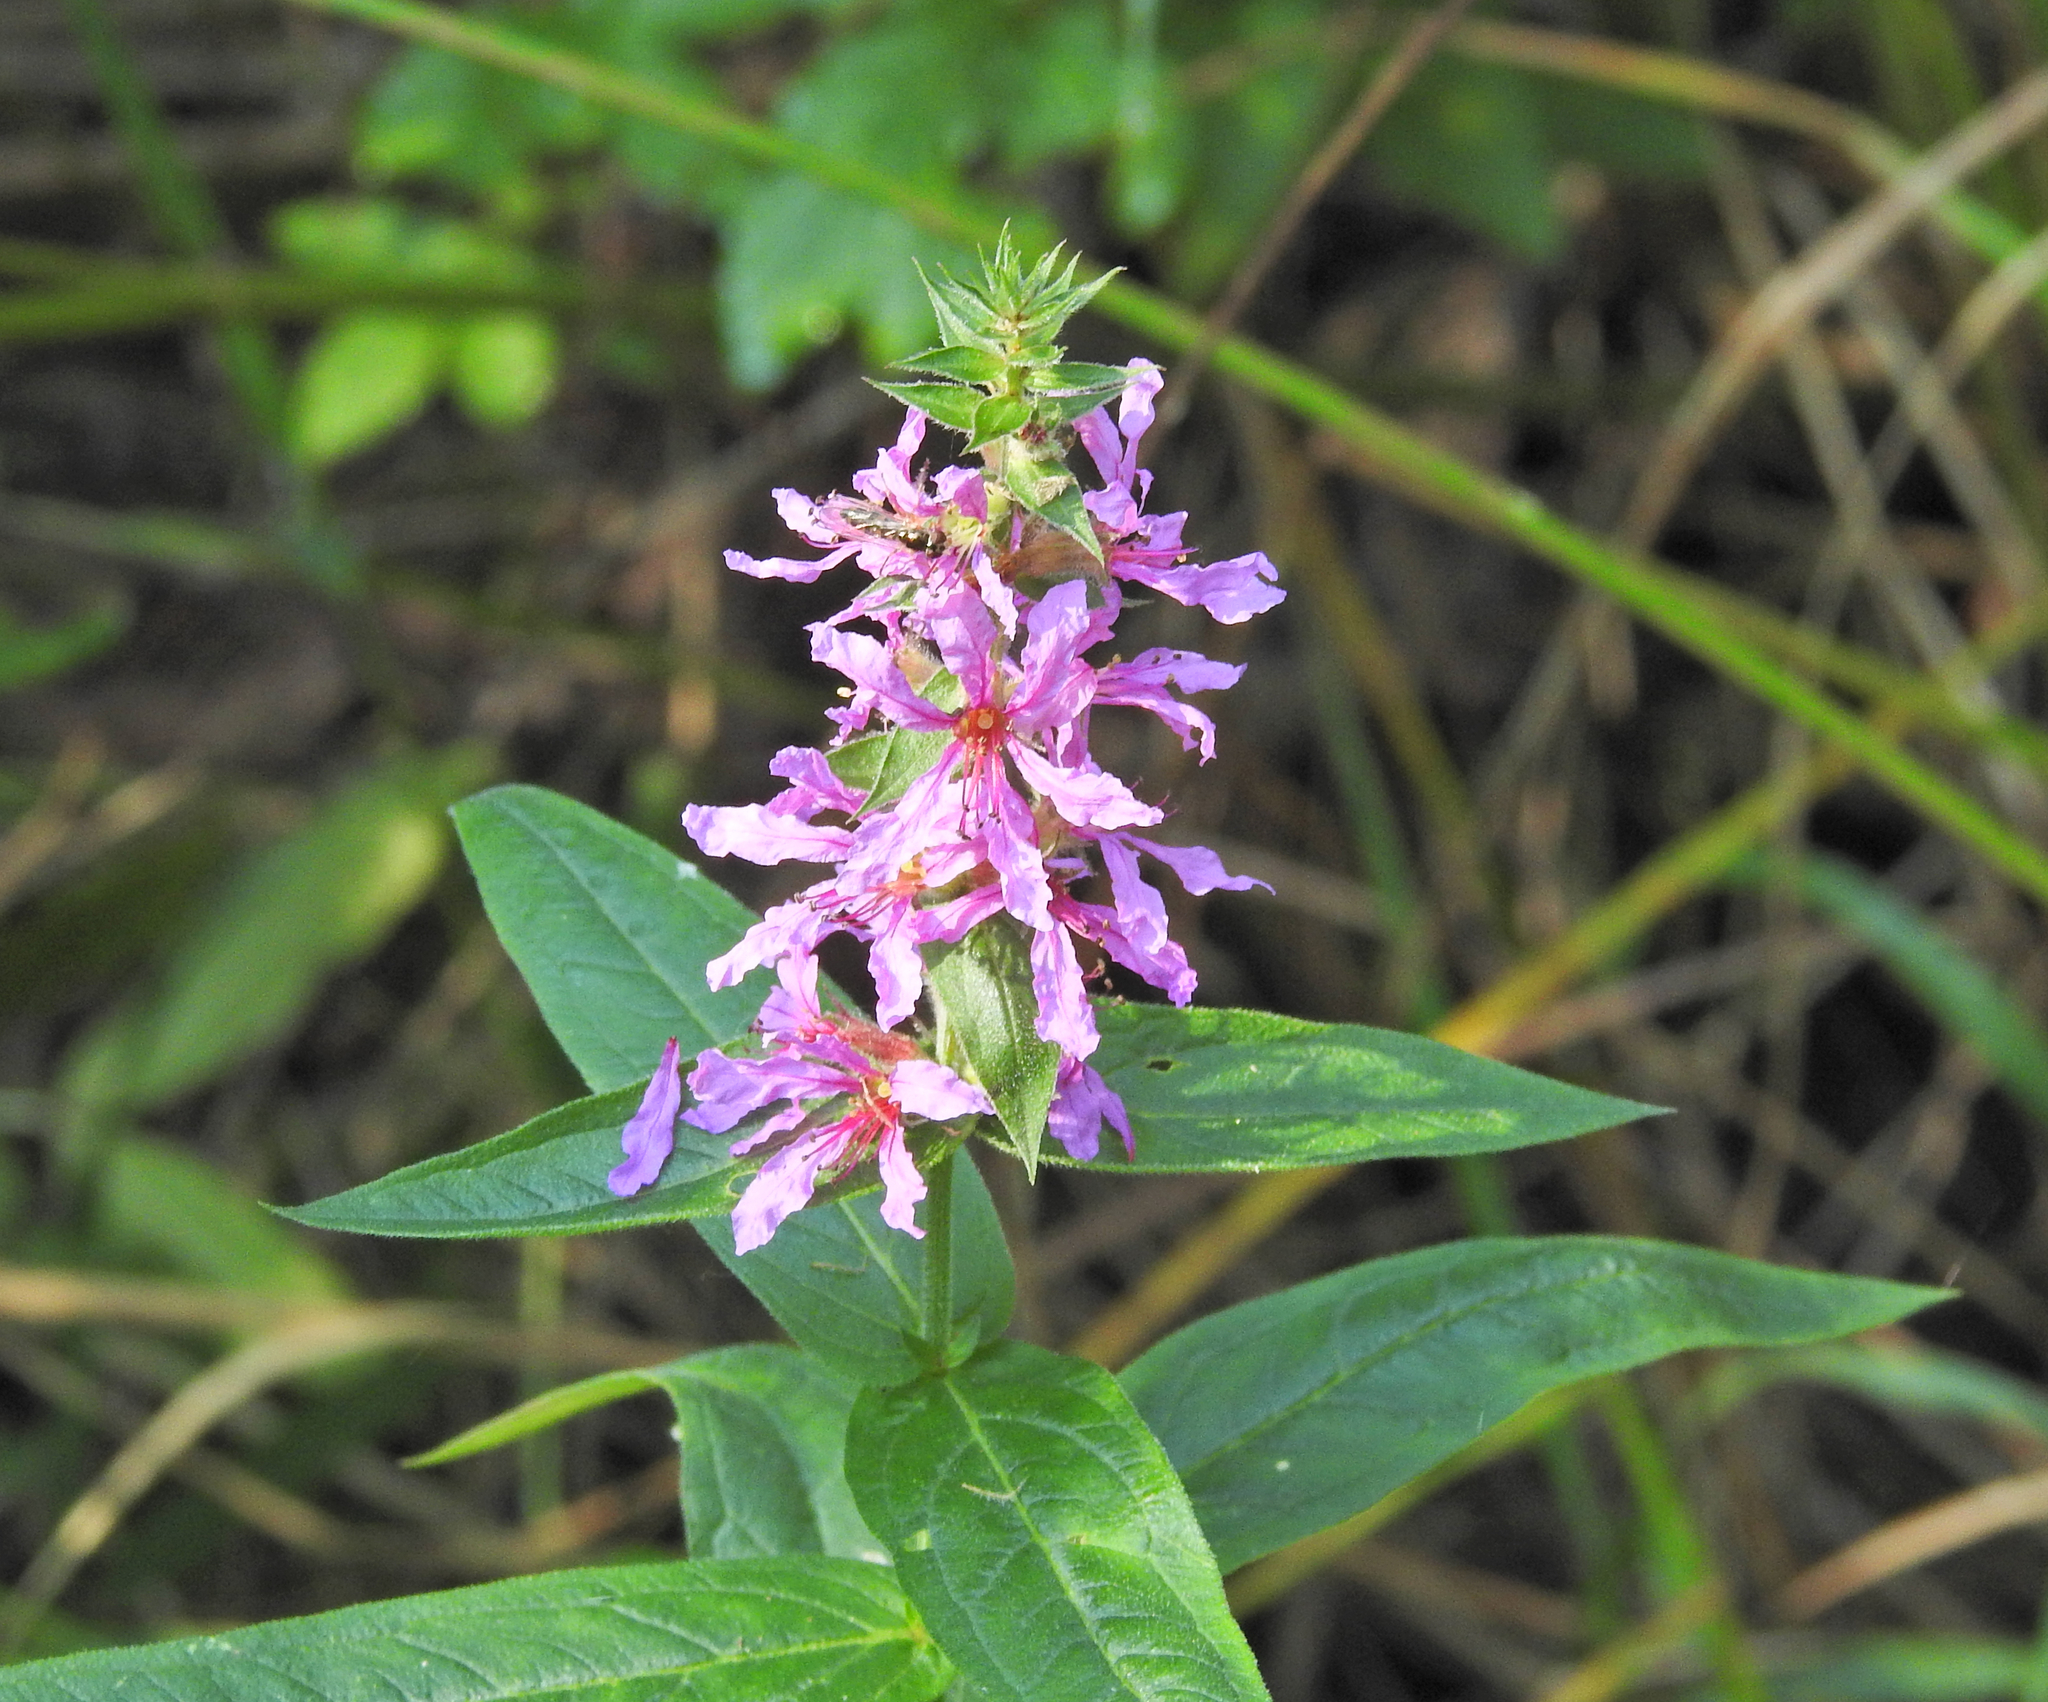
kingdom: Plantae
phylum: Tracheophyta
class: Magnoliopsida
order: Myrtales
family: Lythraceae
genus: Lythrum
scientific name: Lythrum salicaria
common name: Purple loosestrife
